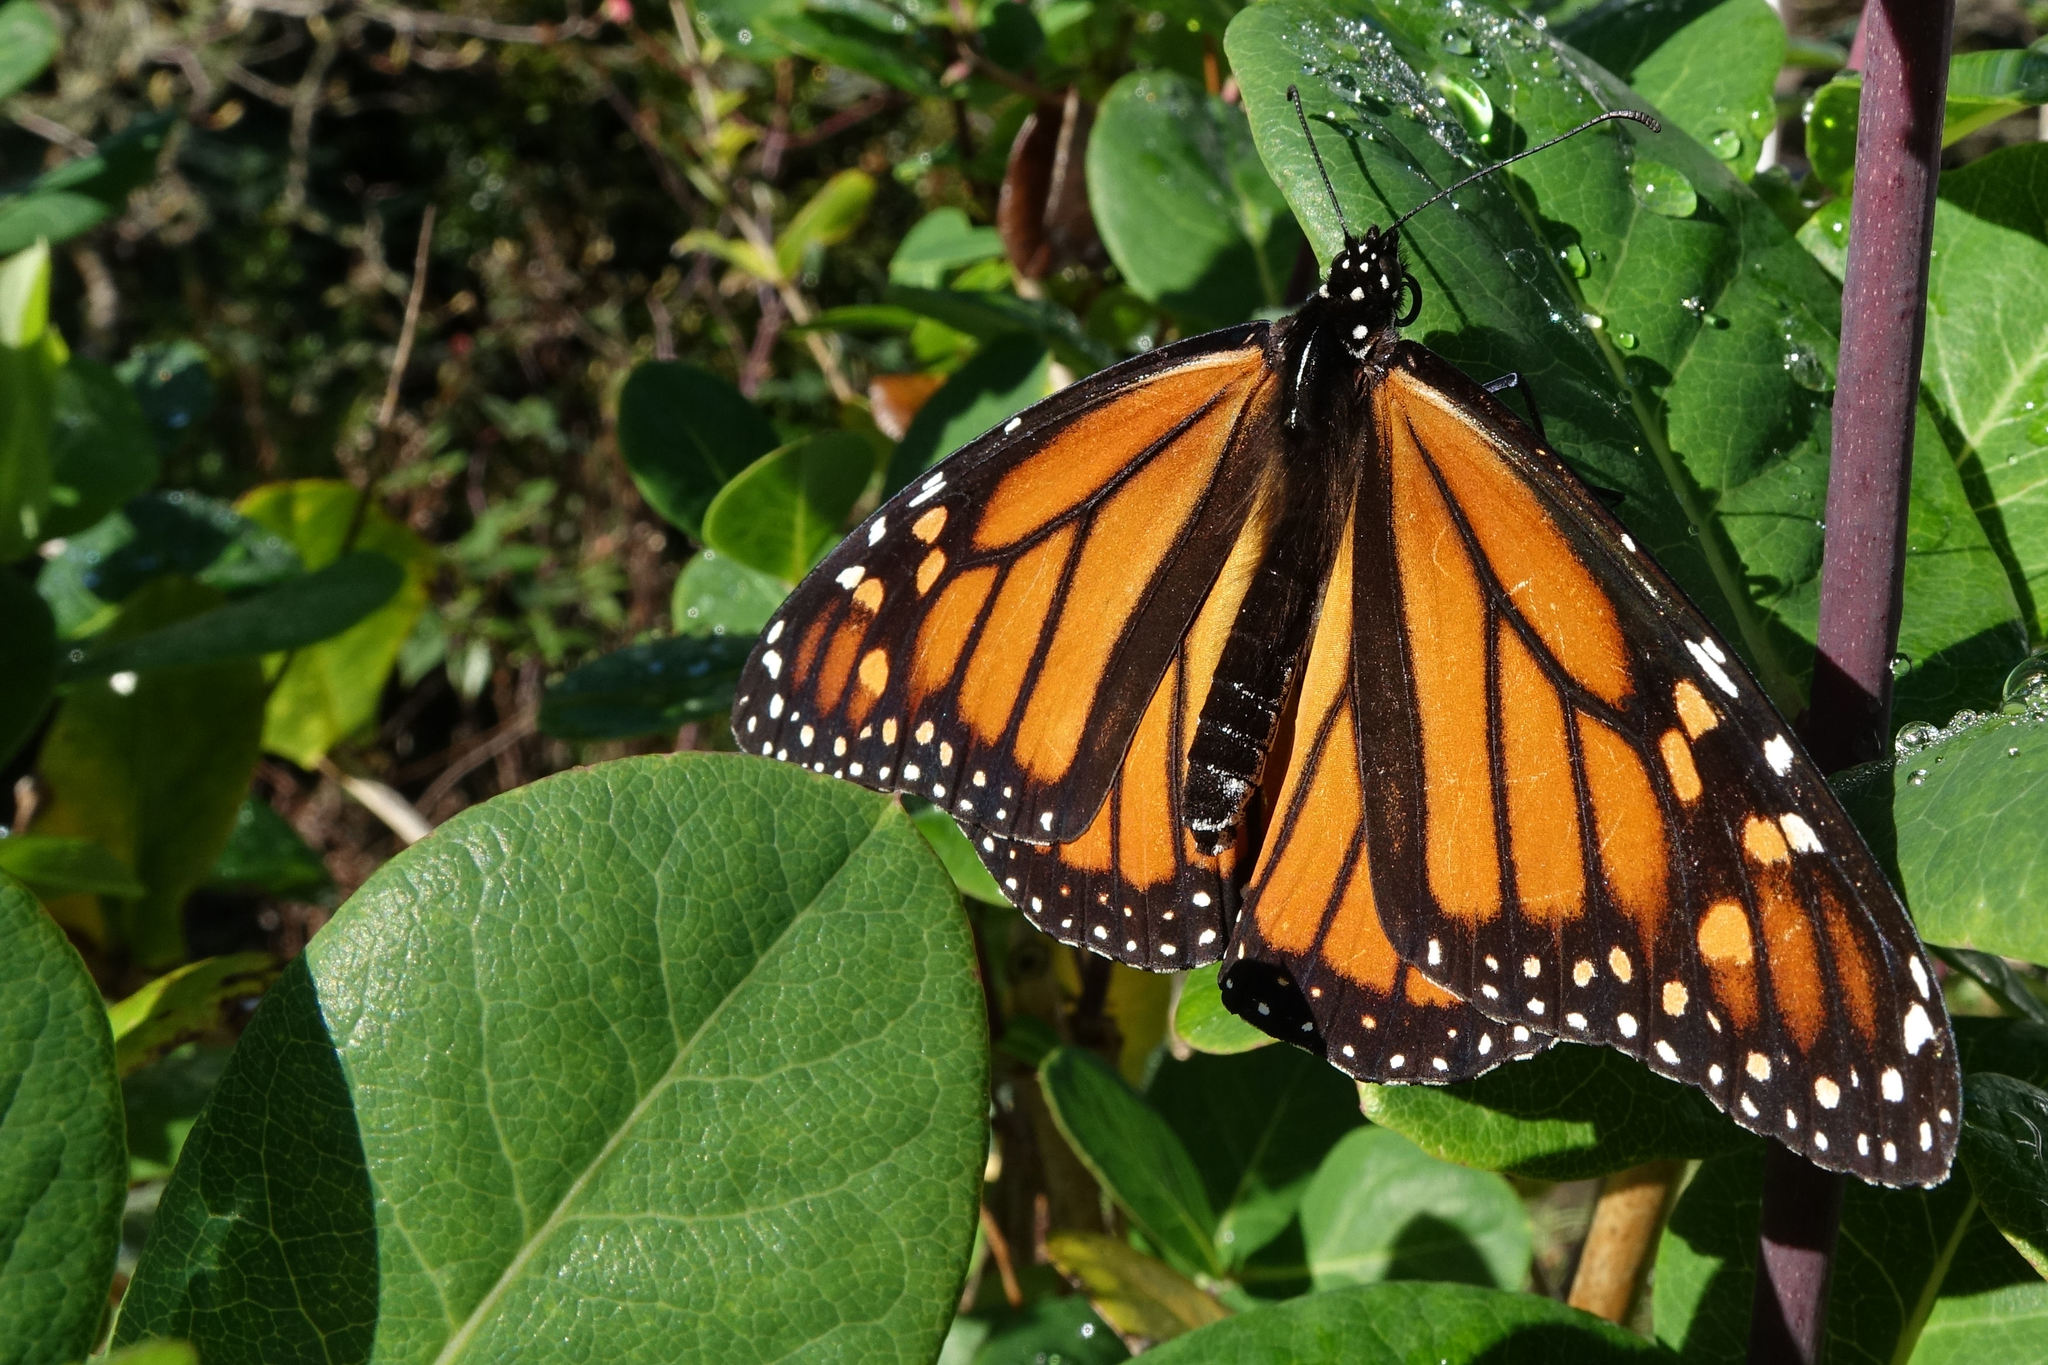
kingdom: Animalia
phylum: Arthropoda
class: Insecta
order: Lepidoptera
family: Nymphalidae
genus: Danaus
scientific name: Danaus plexippus
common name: Monarch
